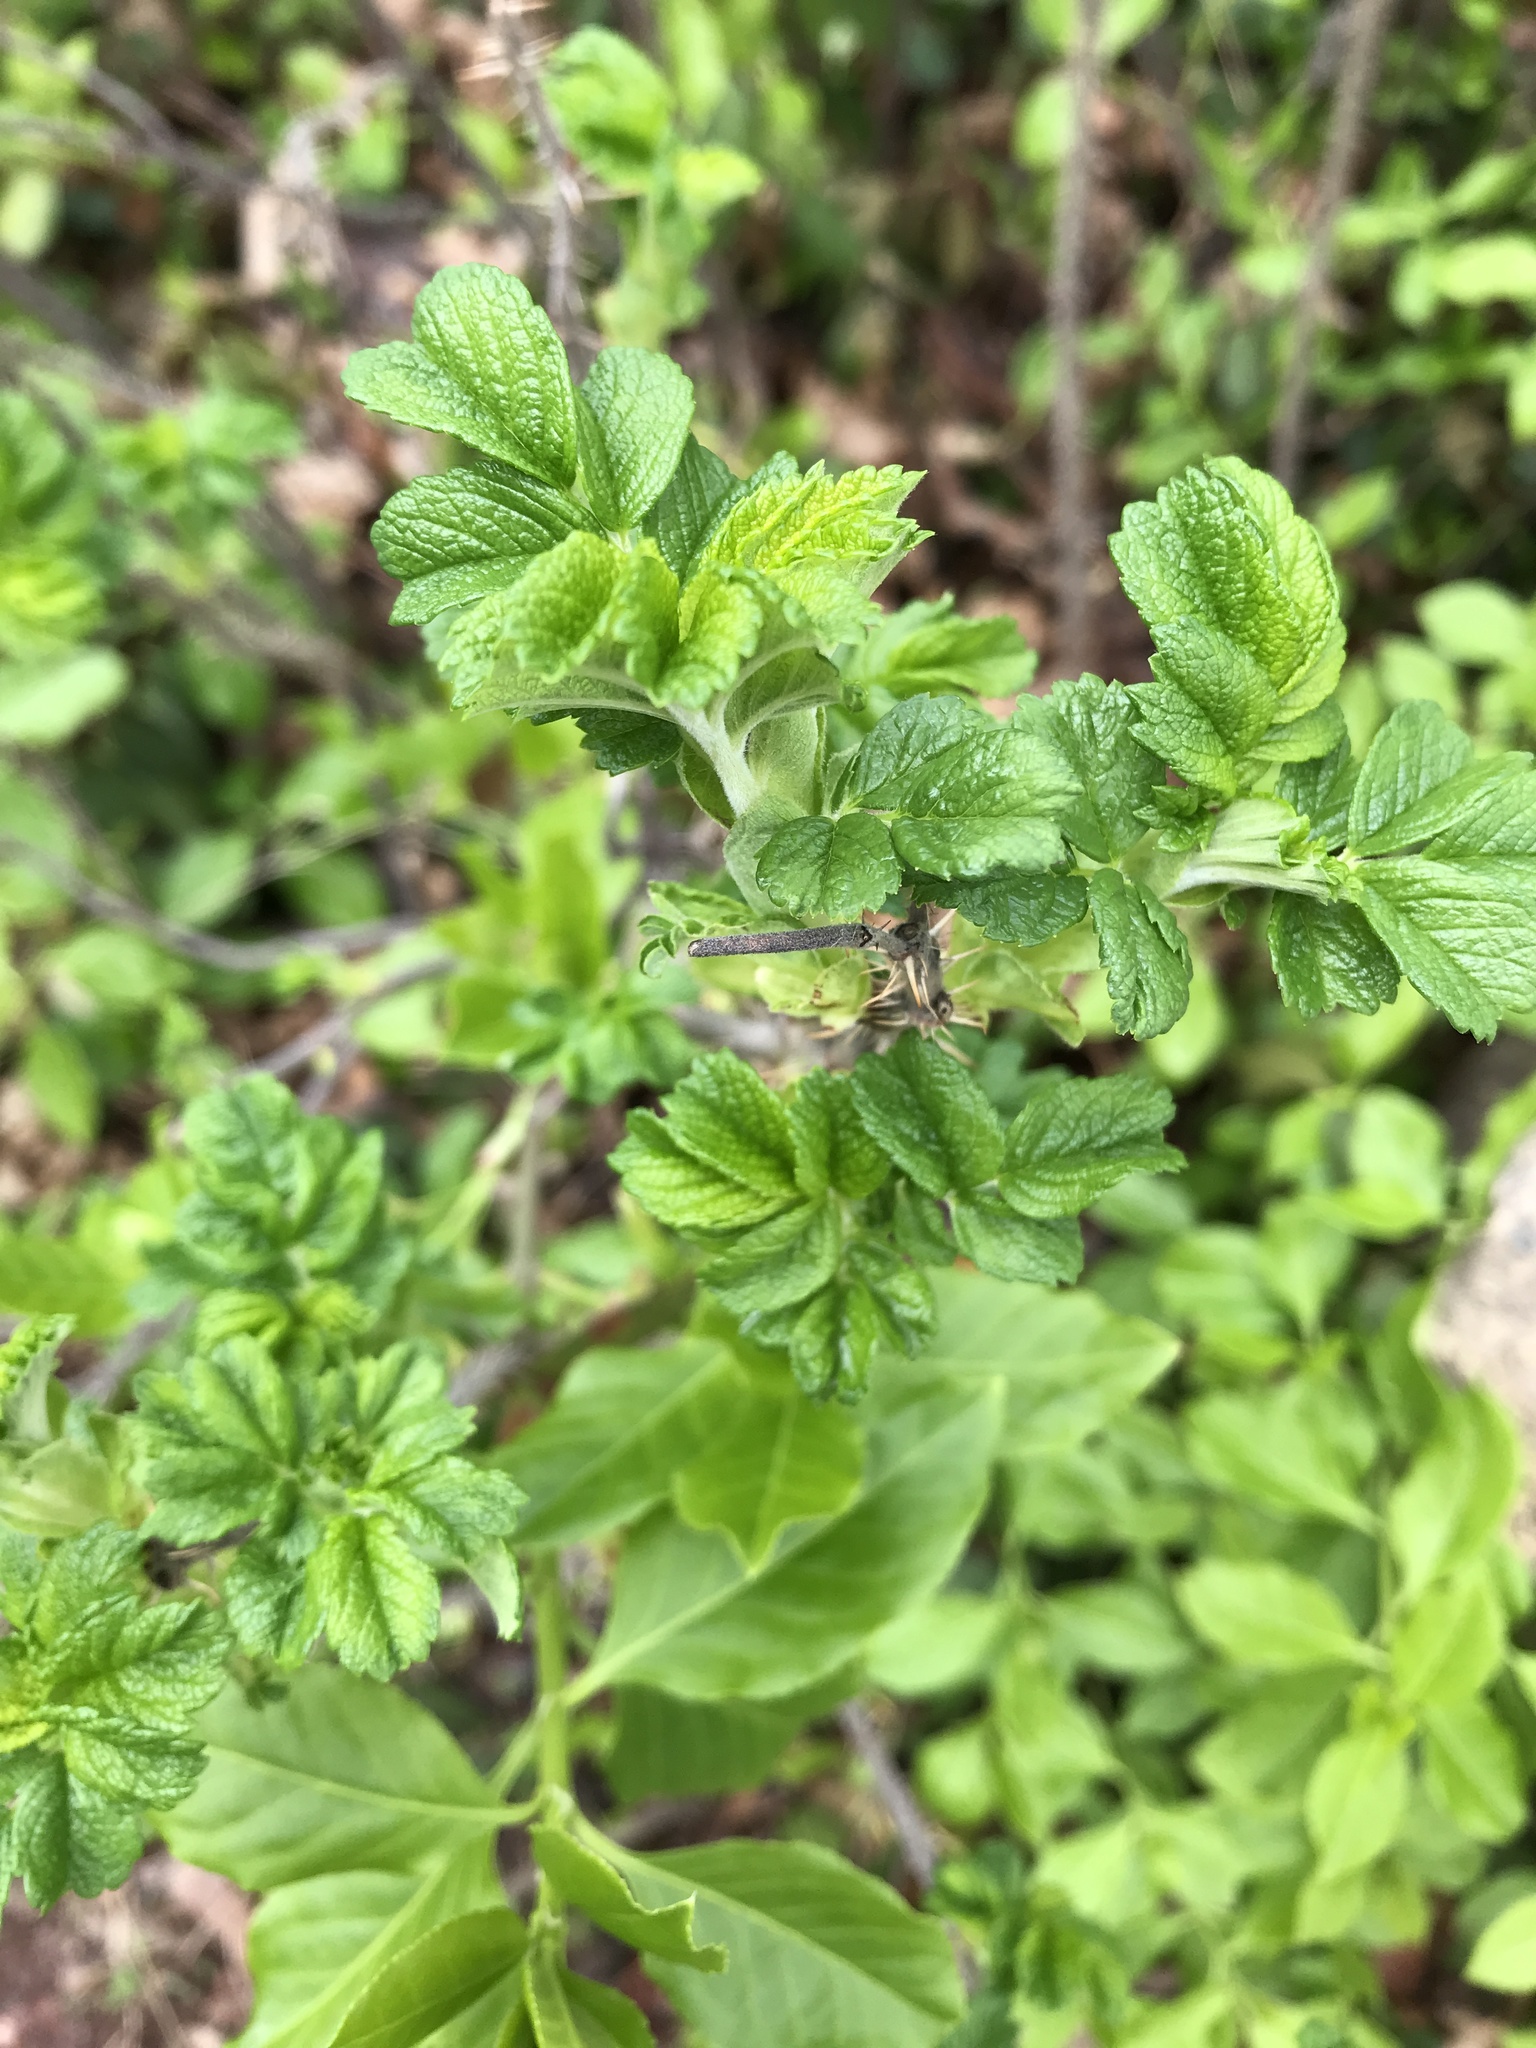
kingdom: Plantae
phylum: Tracheophyta
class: Magnoliopsida
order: Rosales
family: Rosaceae
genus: Rosa
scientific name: Rosa rugosa
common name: Japanese rose
